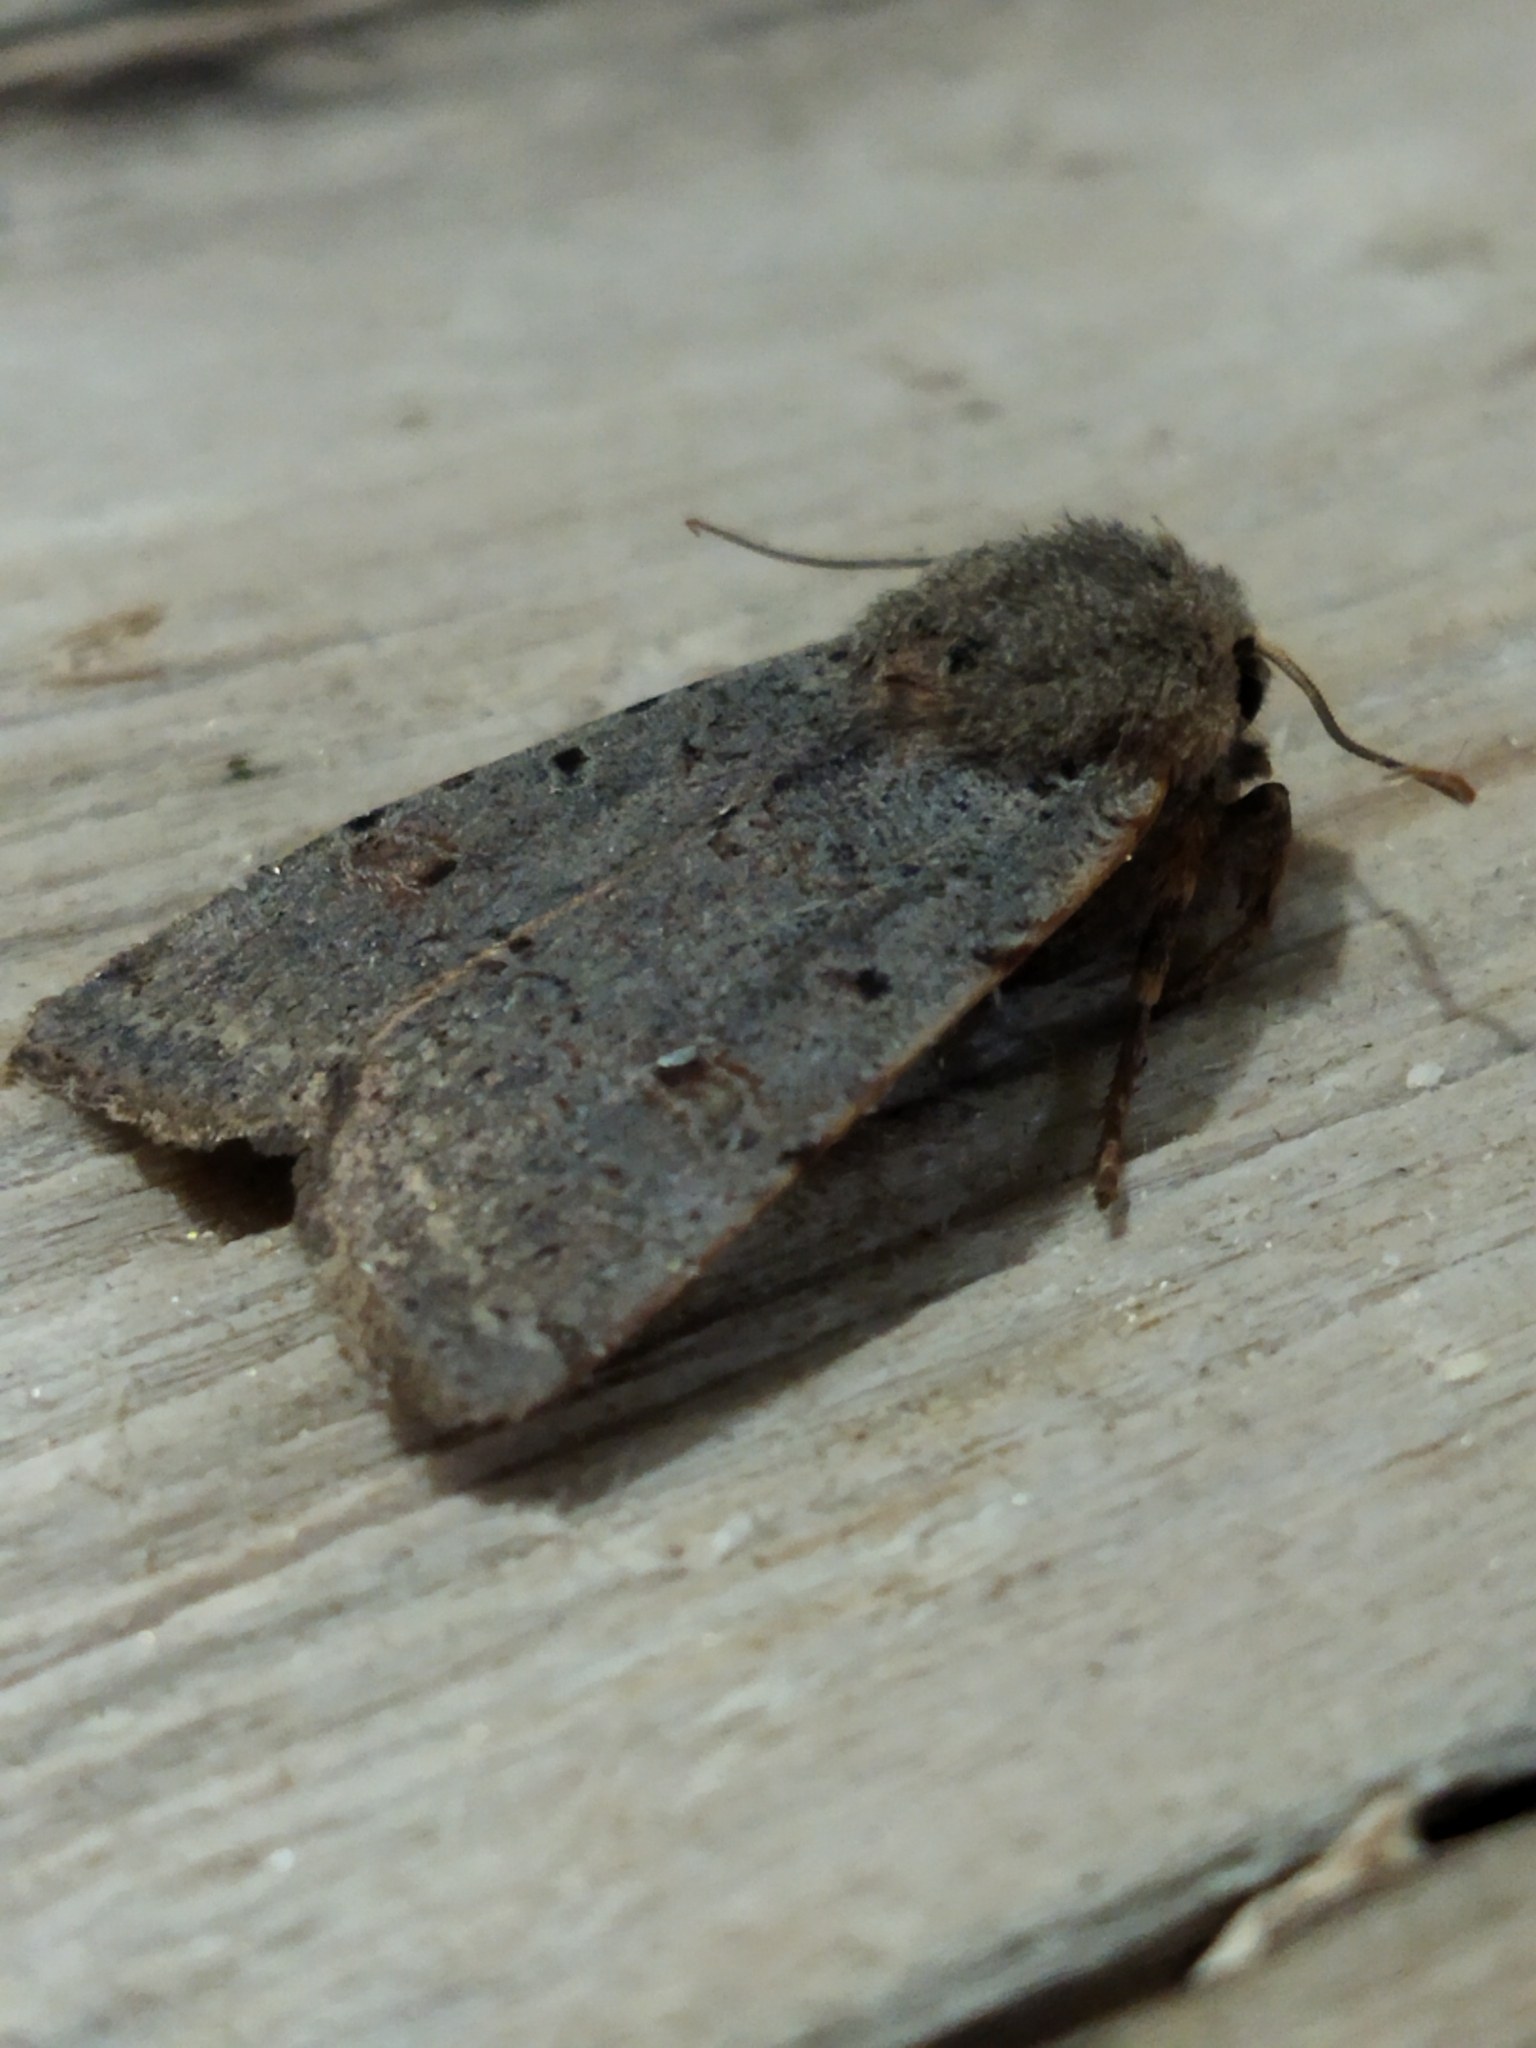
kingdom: Animalia
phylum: Arthropoda
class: Insecta
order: Lepidoptera
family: Noctuidae
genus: Agrochola
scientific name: Agrochola lychnidis
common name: Beaded chestnut
